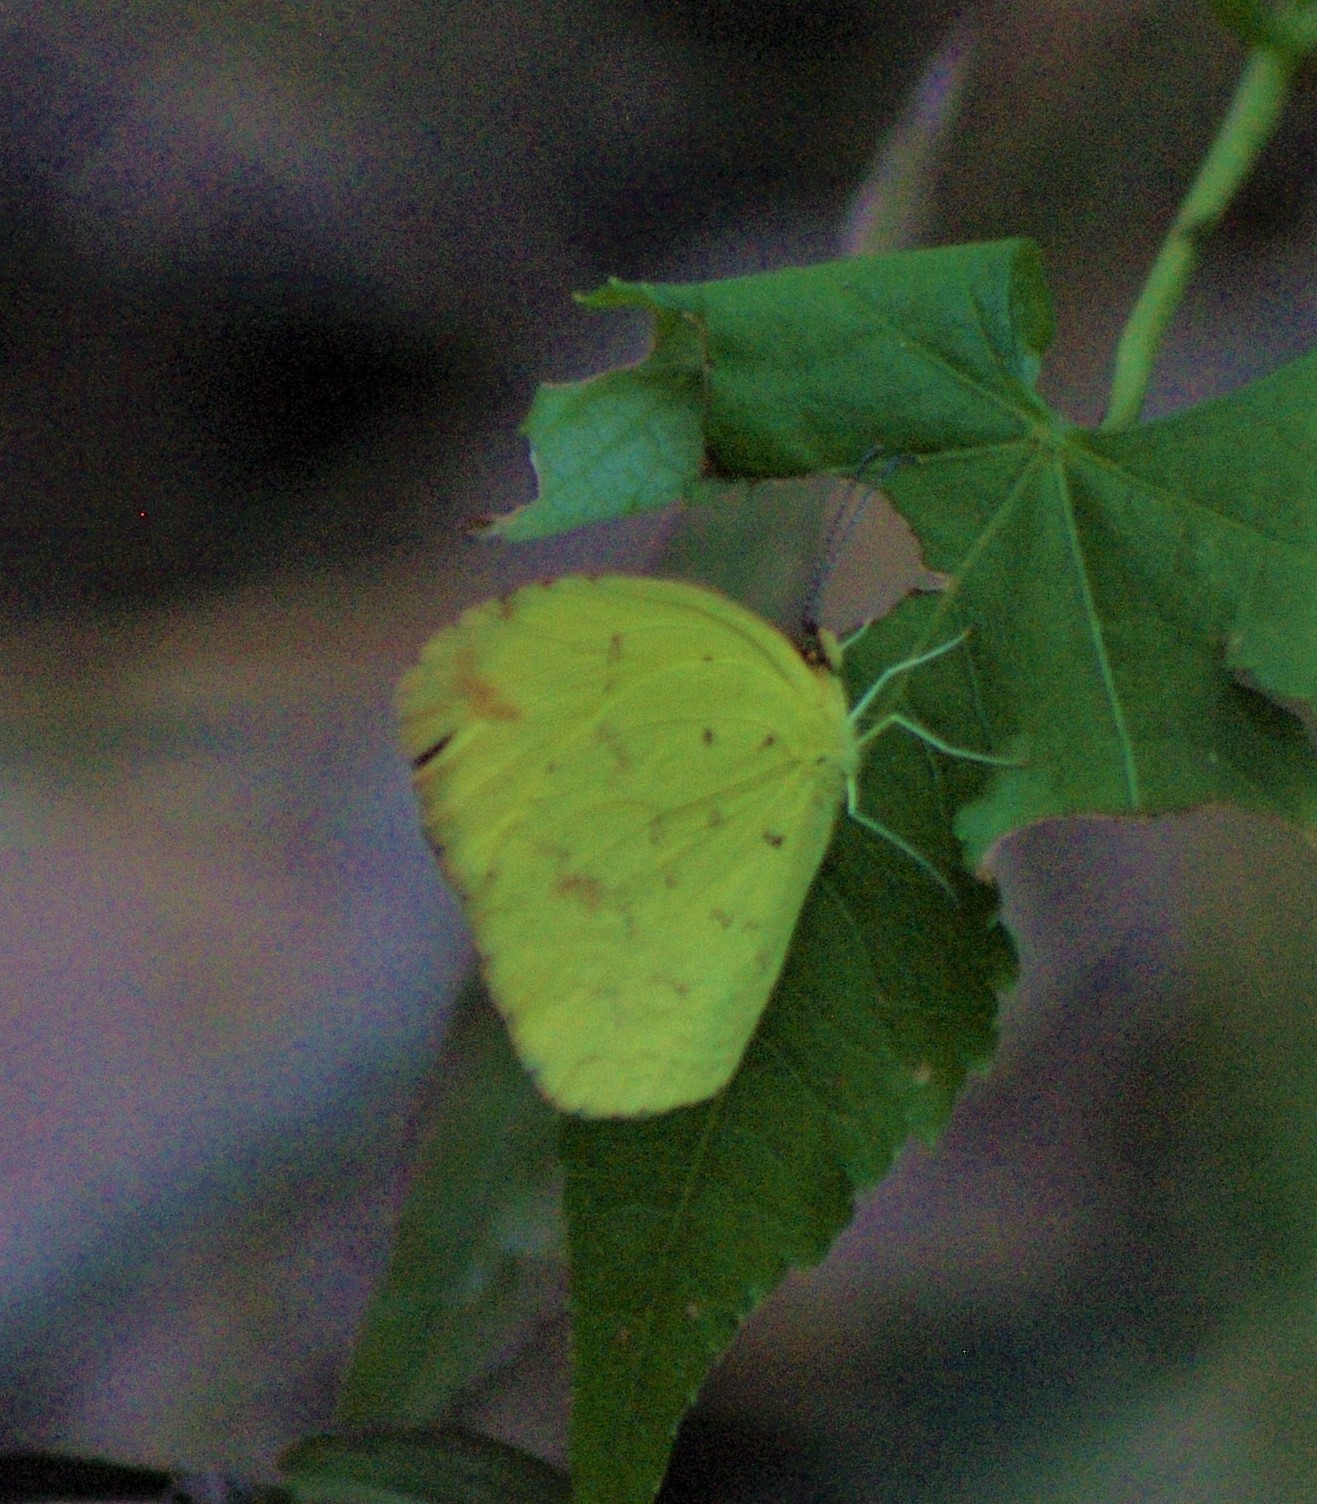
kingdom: Animalia
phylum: Arthropoda
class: Insecta
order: Lepidoptera
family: Pieridae
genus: Eurema
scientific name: Eurema desjardinsii
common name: Angled grass yellow
